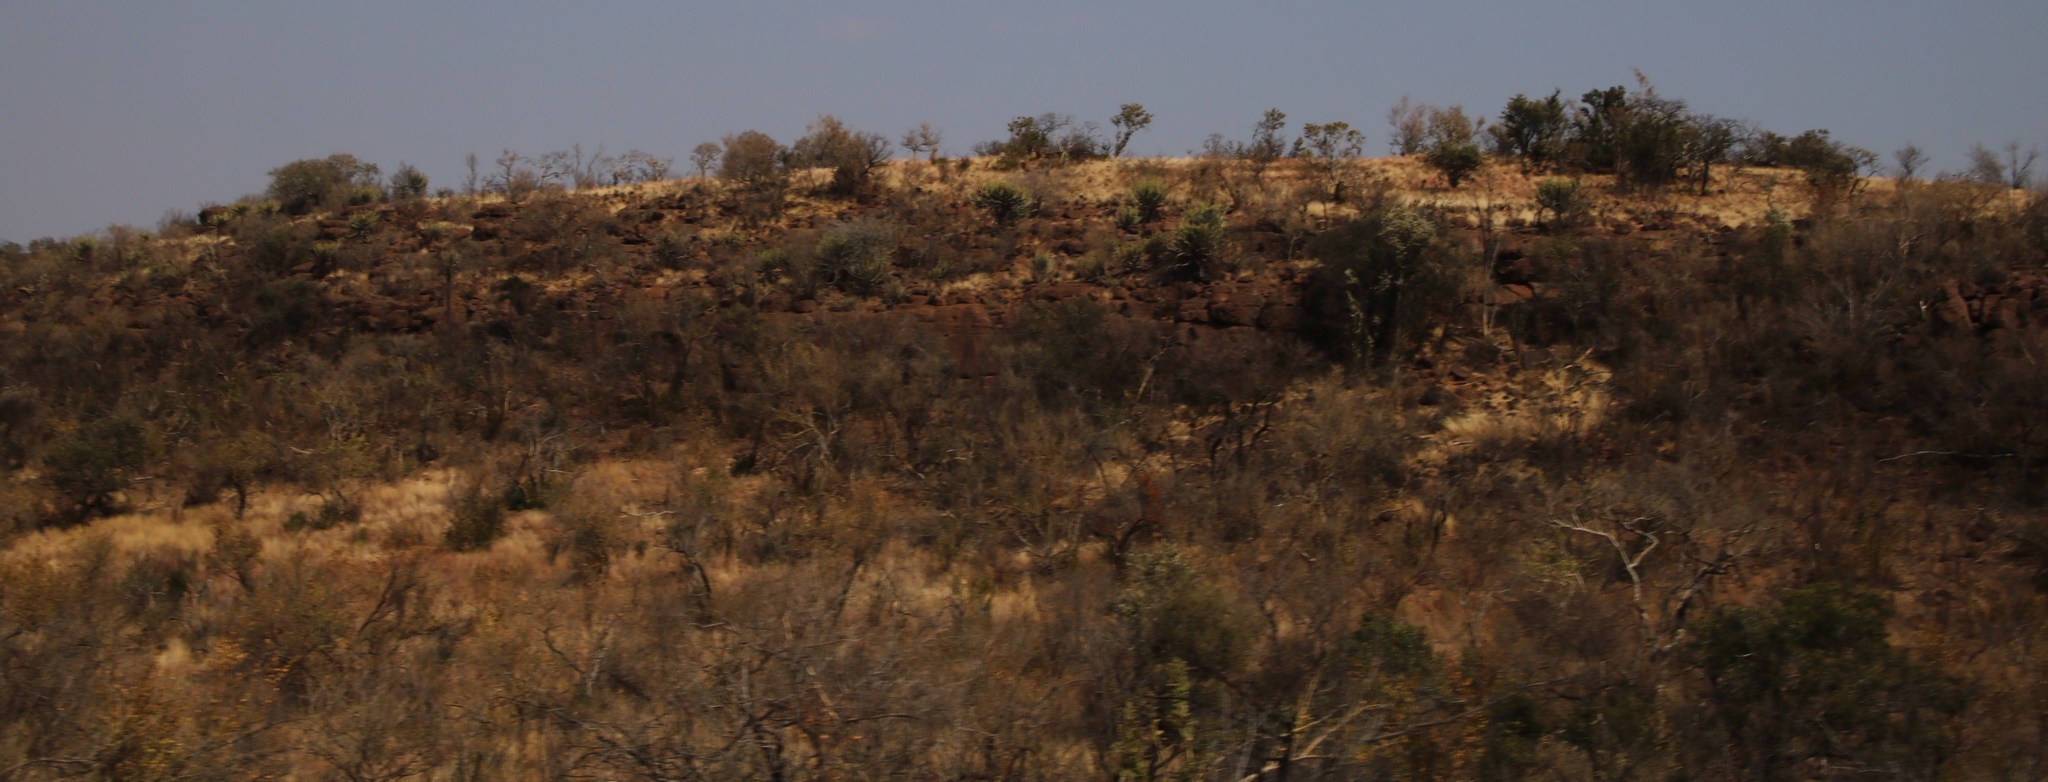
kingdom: Plantae
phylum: Tracheophyta
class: Magnoliopsida
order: Malpighiales
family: Euphorbiaceae
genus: Euphorbia
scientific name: Euphorbia cooperi
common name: Candelabra tree
